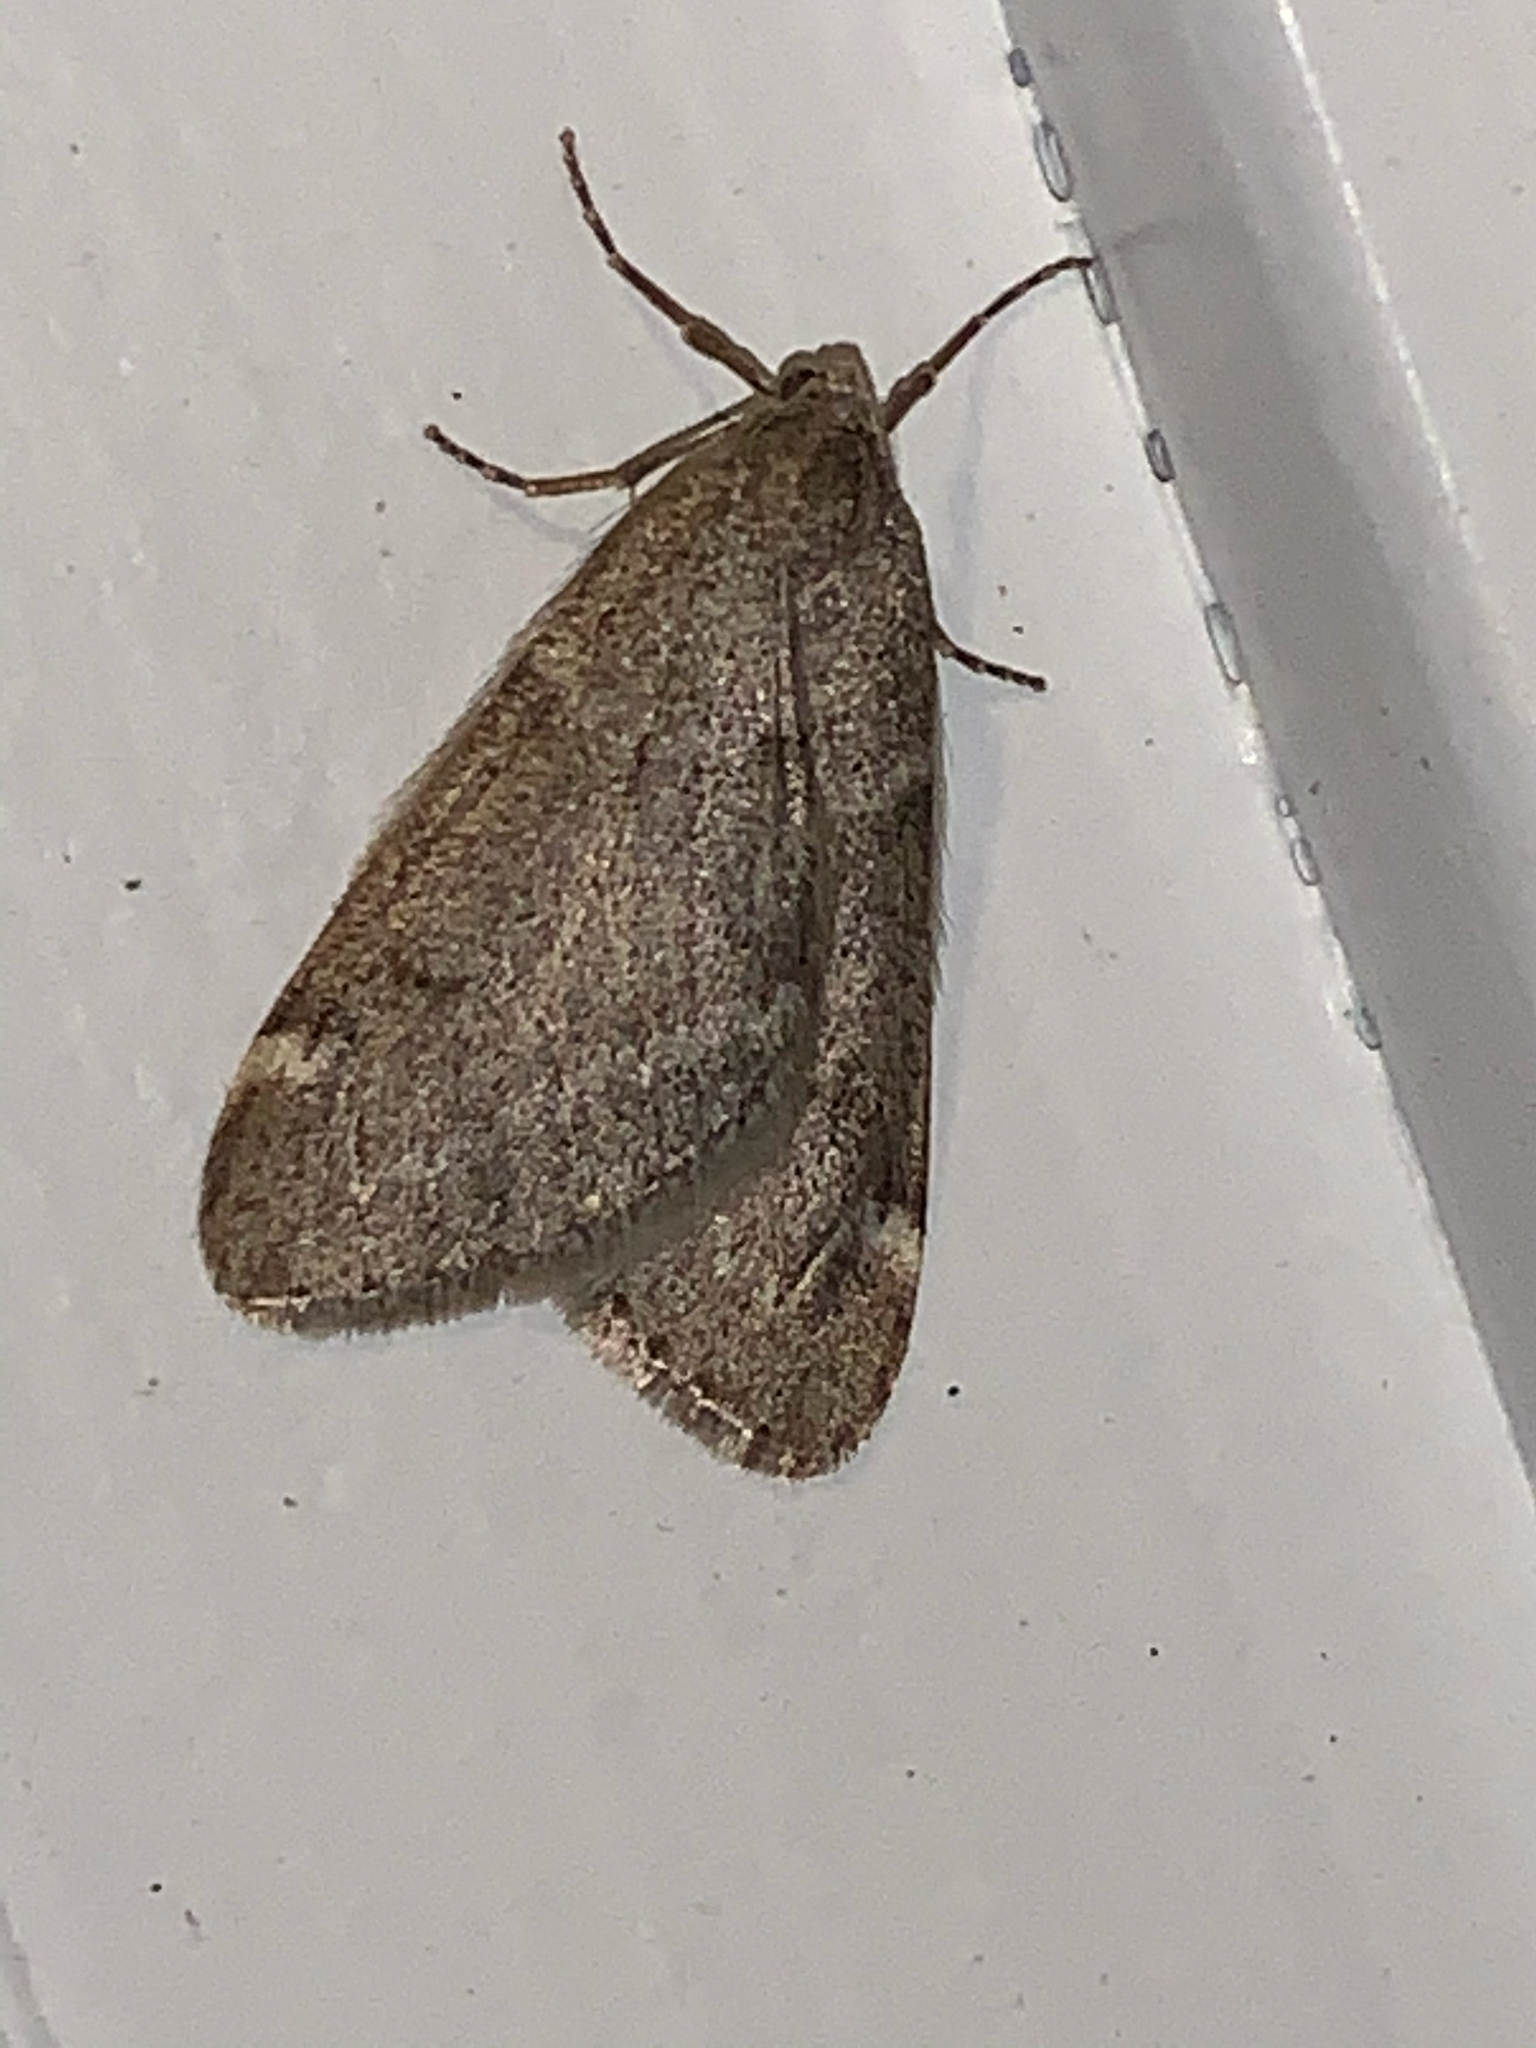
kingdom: Animalia
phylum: Arthropoda
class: Insecta
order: Lepidoptera
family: Geometridae
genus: Alsophila
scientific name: Alsophila pometaria
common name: Fall cankerworm
